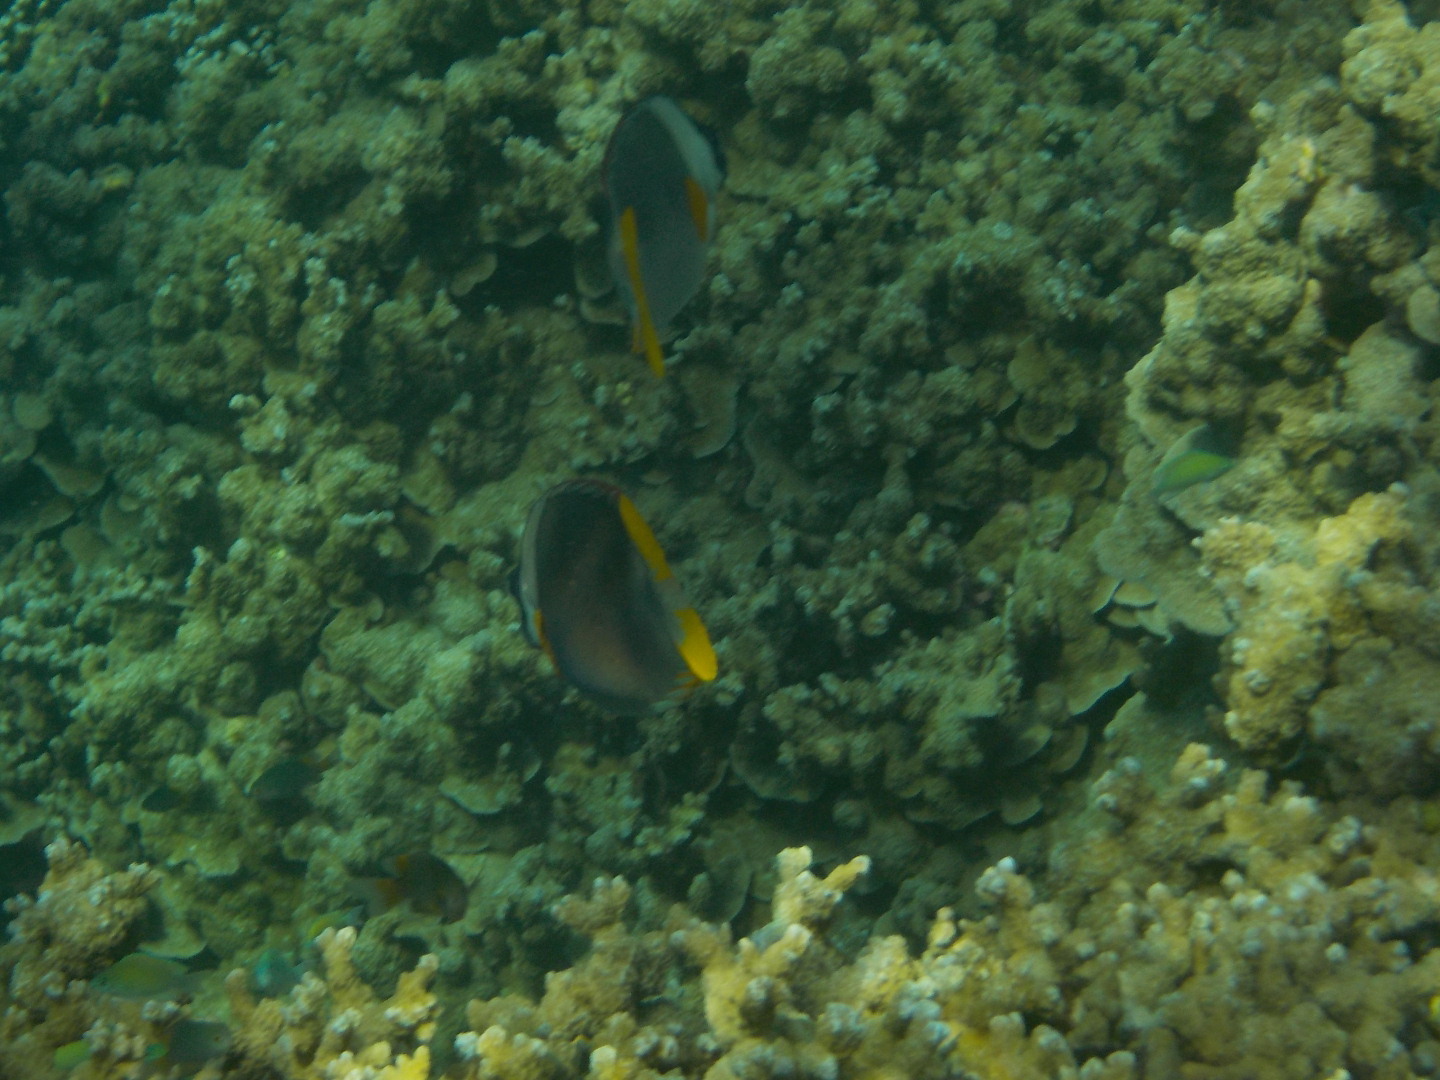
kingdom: Animalia
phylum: Chordata
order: Perciformes
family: Siganidae
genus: Siganus
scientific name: Siganus magnificus
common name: Magnificent rabbitfish
